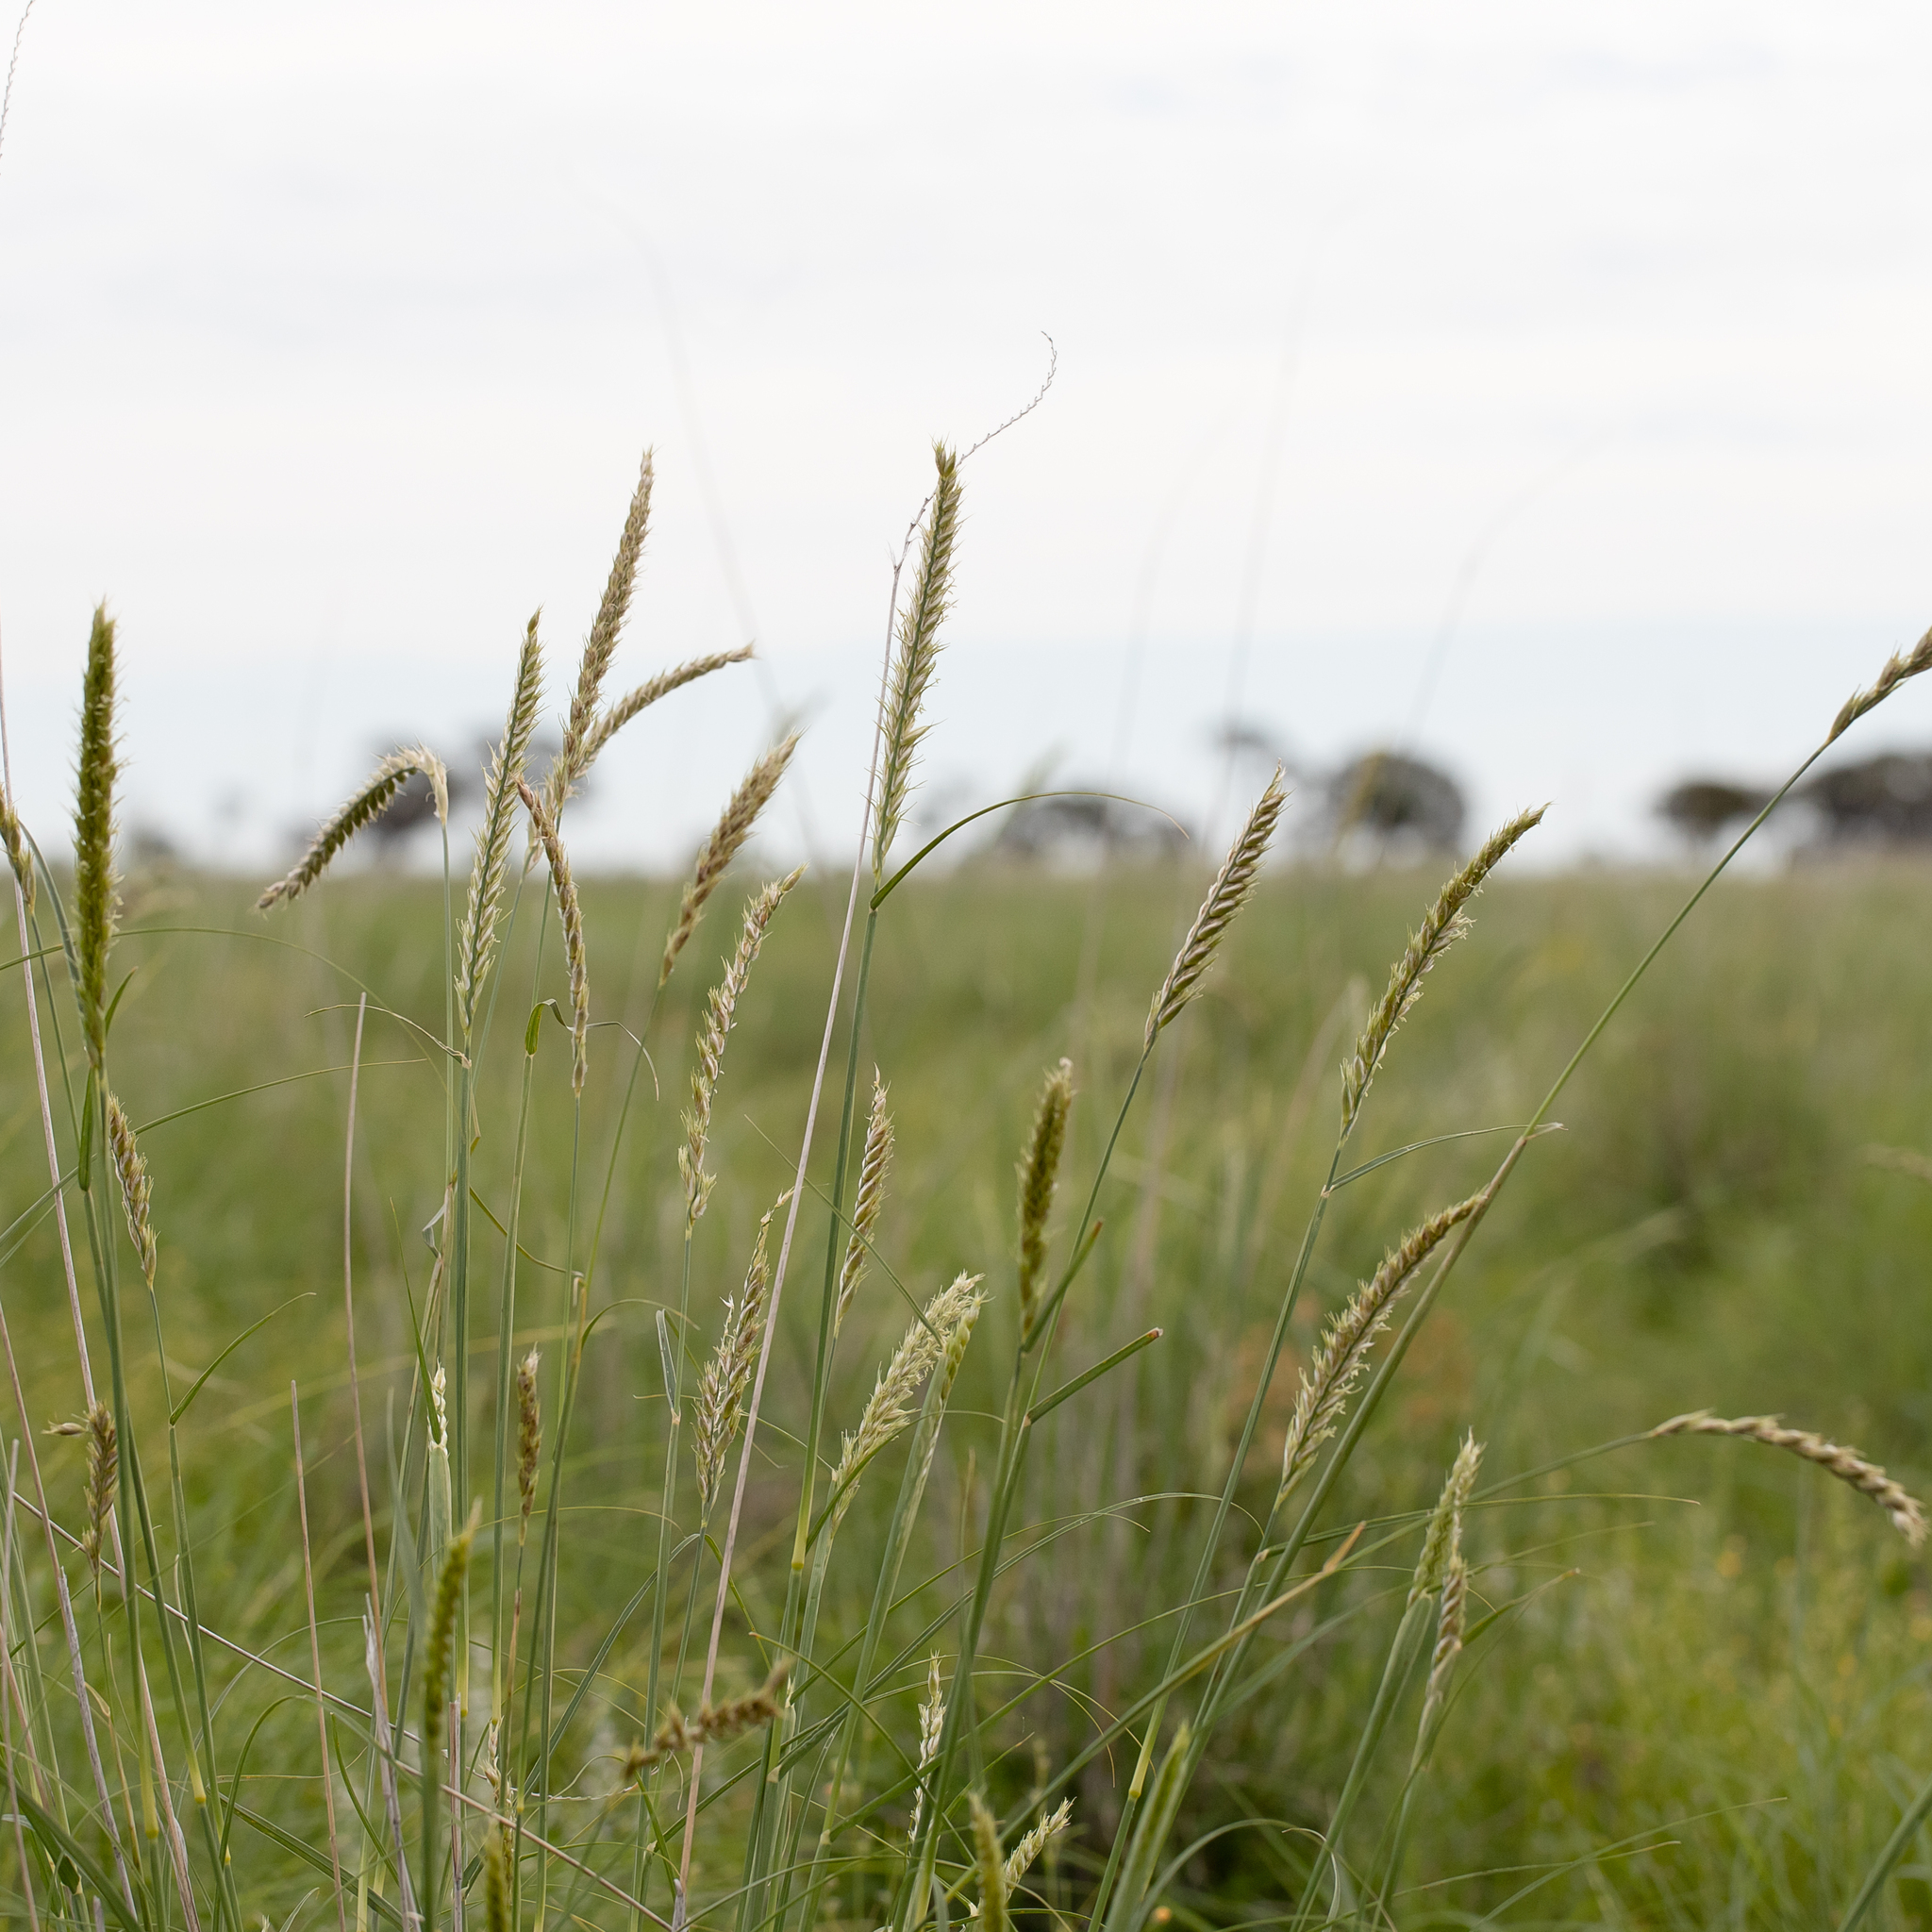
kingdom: Plantae
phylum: Tracheophyta
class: Liliopsida
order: Poales
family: Poaceae
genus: Astrebla
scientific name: Astrebla squarrosa
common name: Wheat-ear mitchell grass
